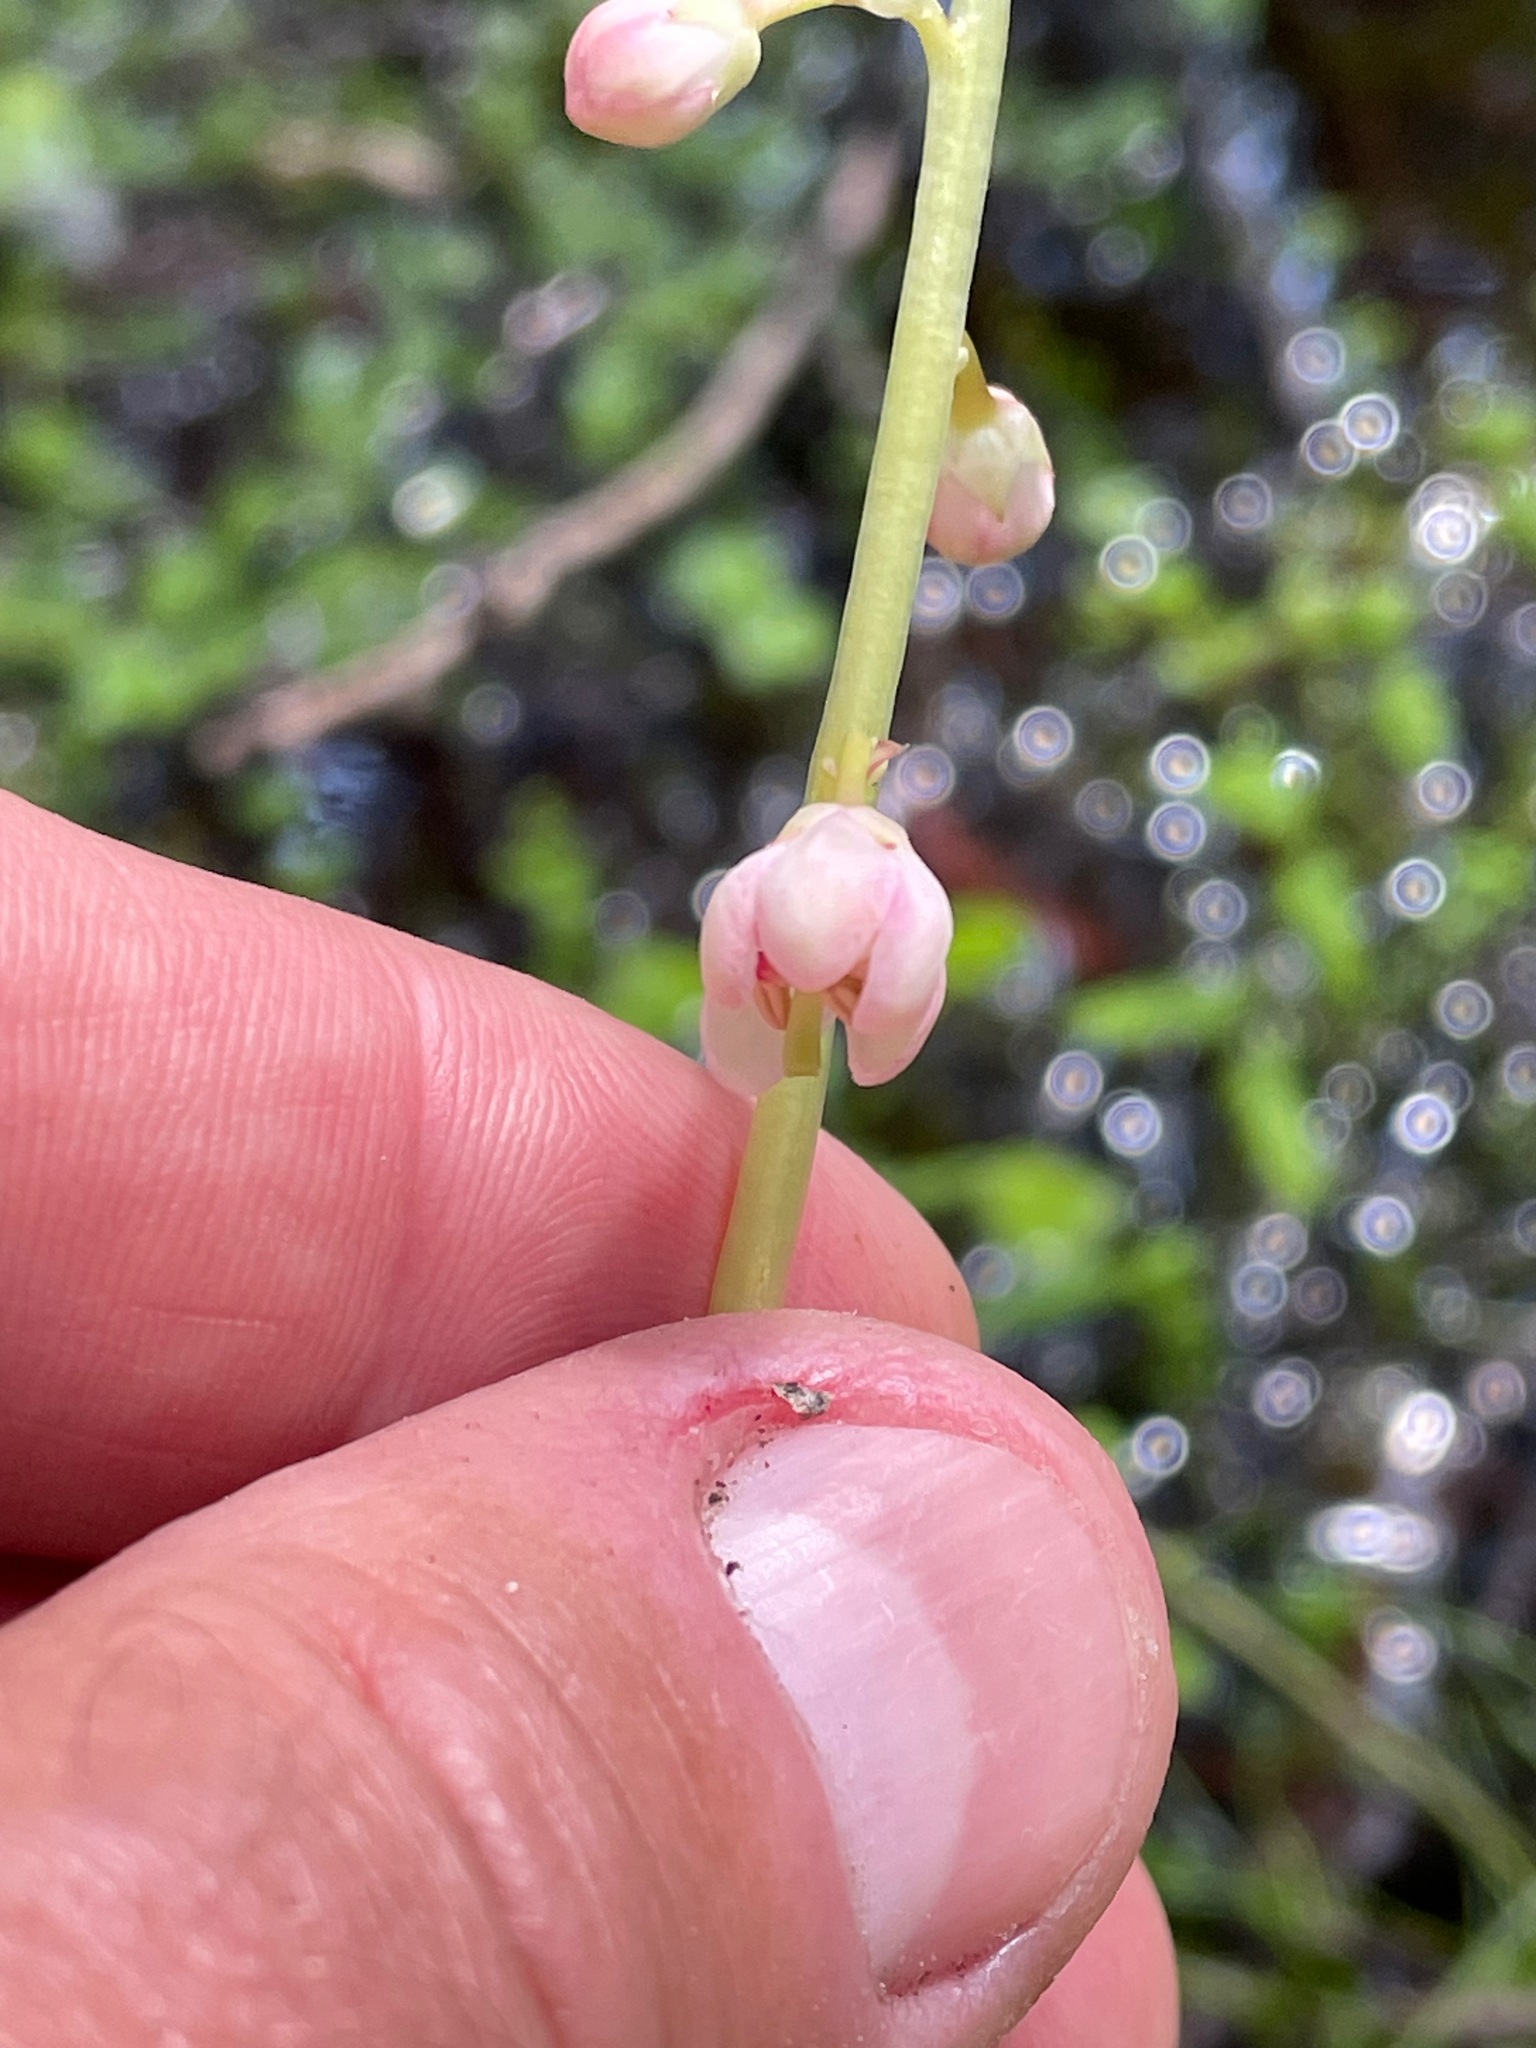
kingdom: Plantae
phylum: Tracheophyta
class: Magnoliopsida
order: Ericales
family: Ericaceae
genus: Pyrola
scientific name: Pyrola asarifolia
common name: Bog wintergreen
